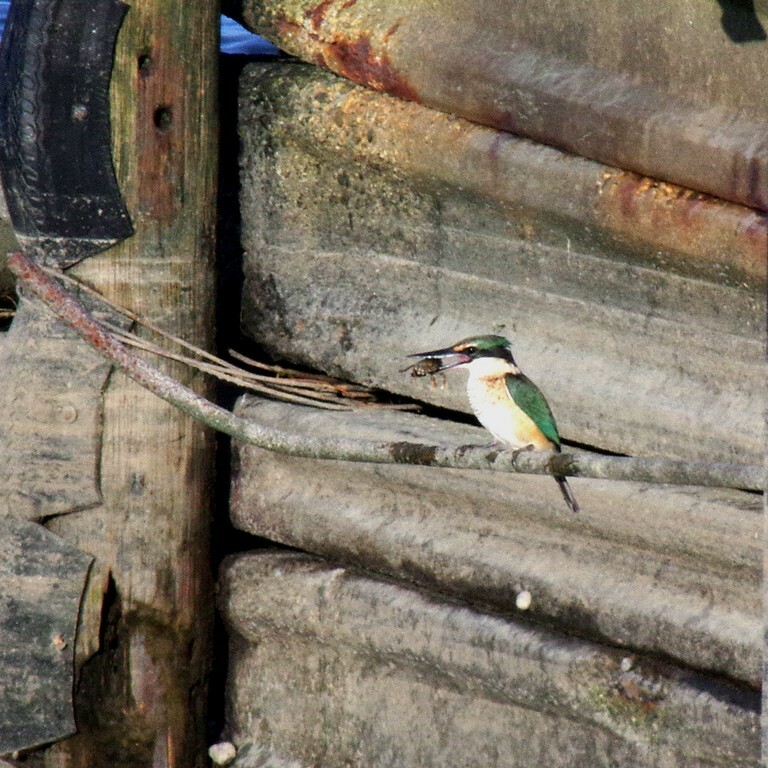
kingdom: Animalia
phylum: Chordata
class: Aves
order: Coraciiformes
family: Alcedinidae
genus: Todiramphus
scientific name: Todiramphus sanctus
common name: Sacred kingfisher
